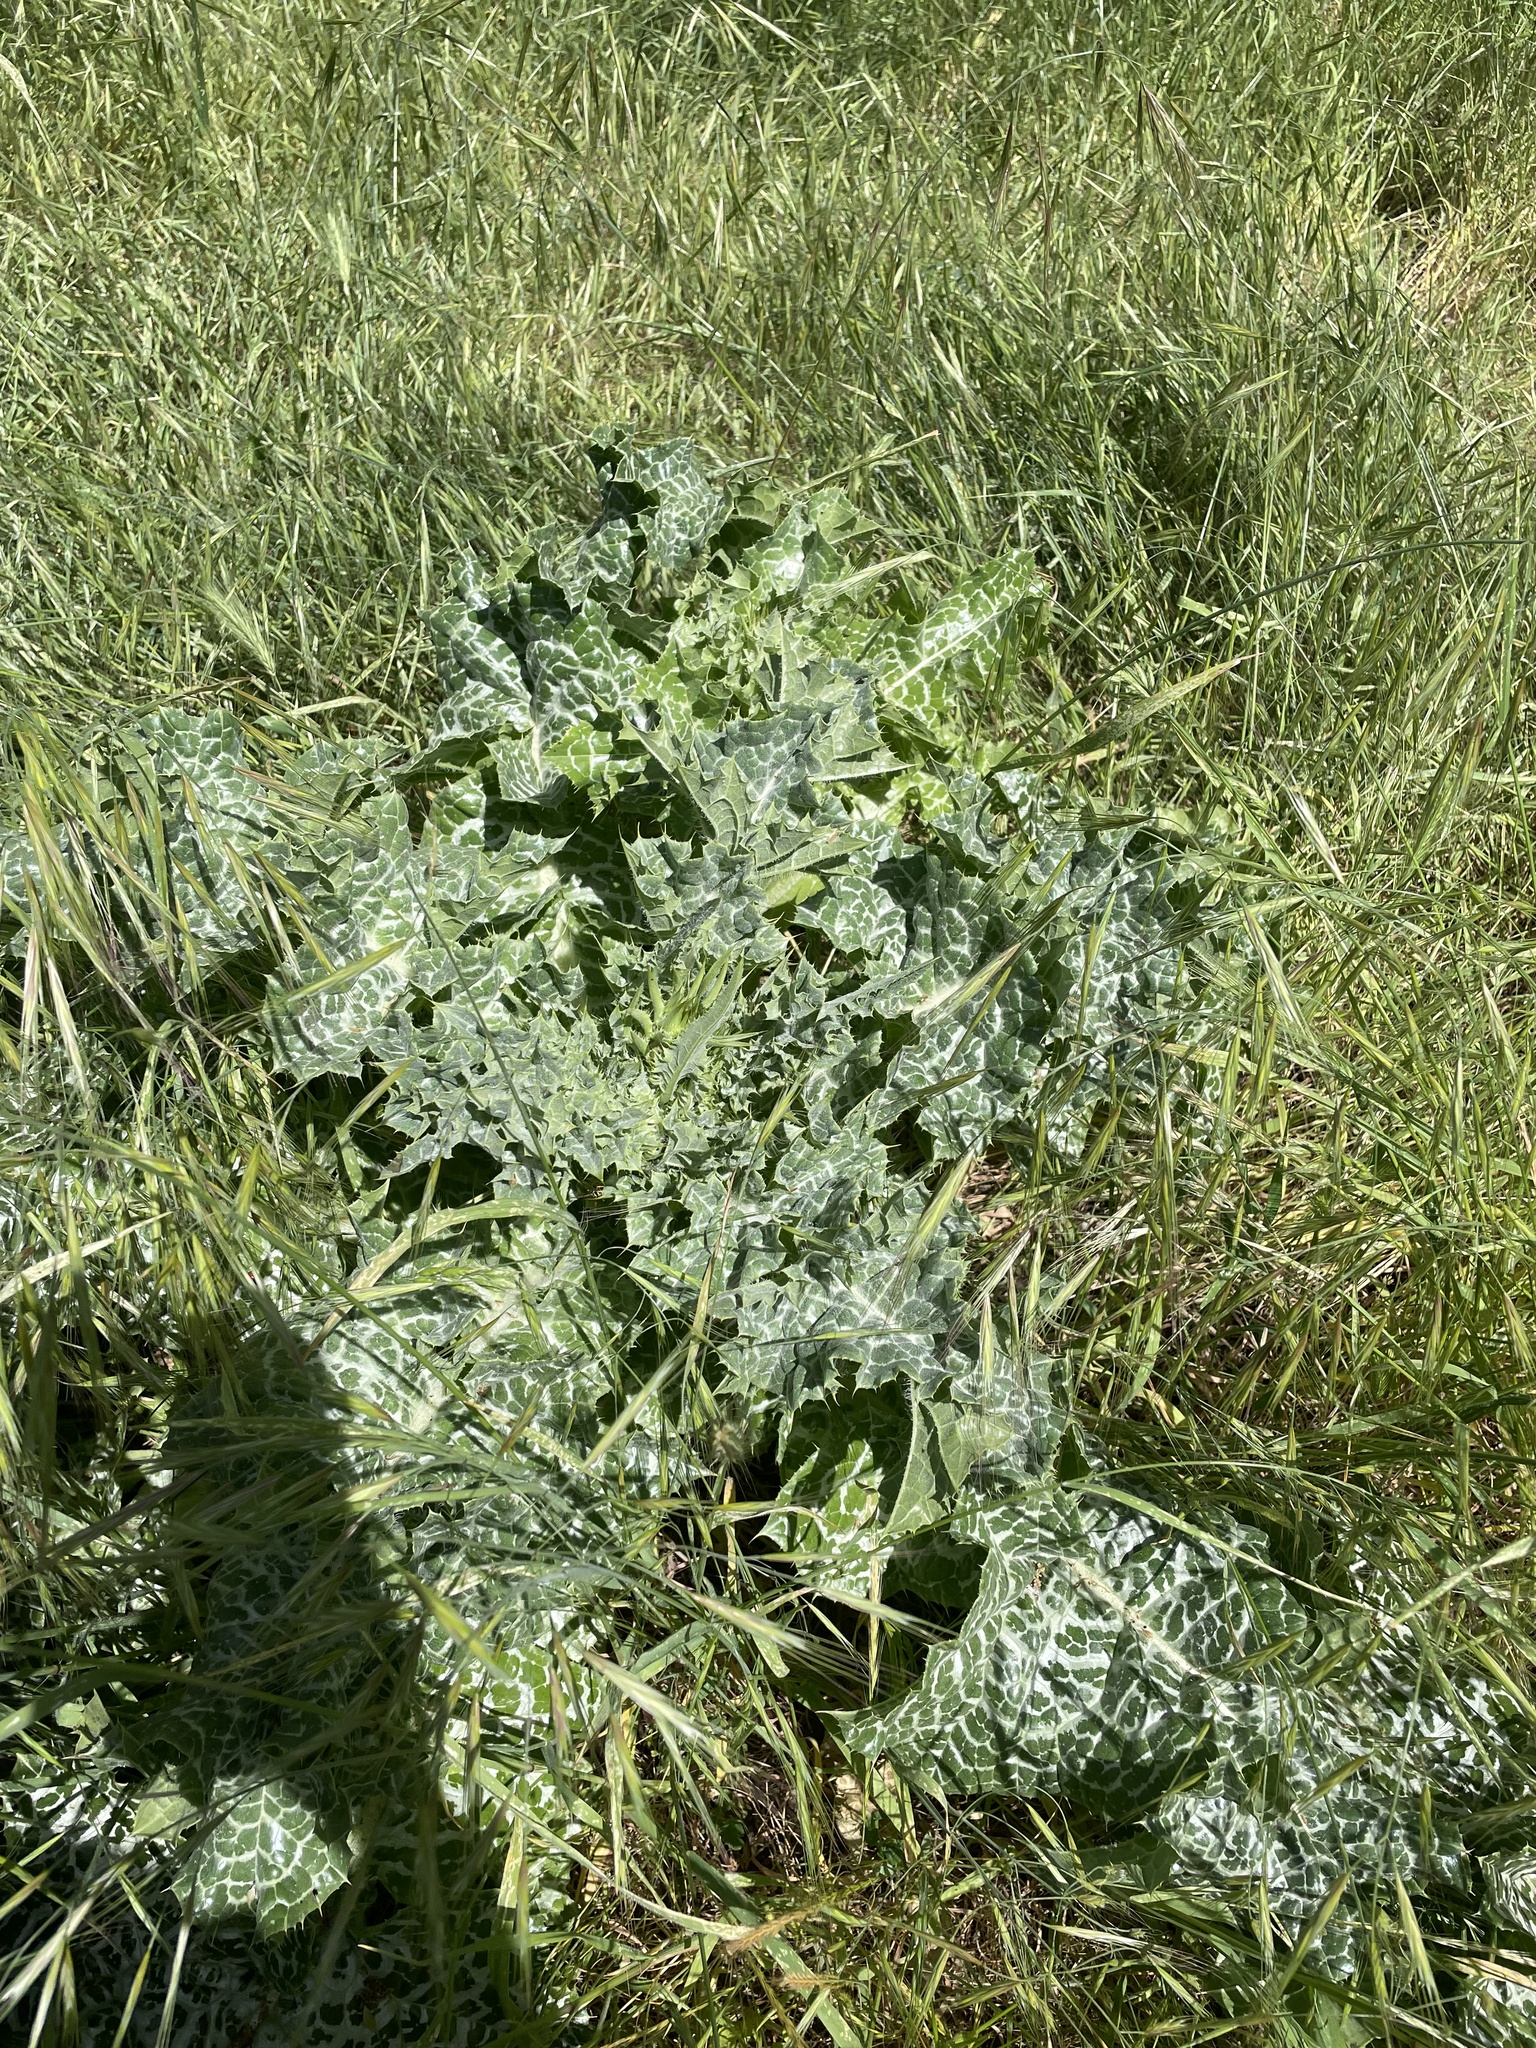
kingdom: Plantae
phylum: Tracheophyta
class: Magnoliopsida
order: Asterales
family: Asteraceae
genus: Silybum
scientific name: Silybum marianum
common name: Milk thistle
